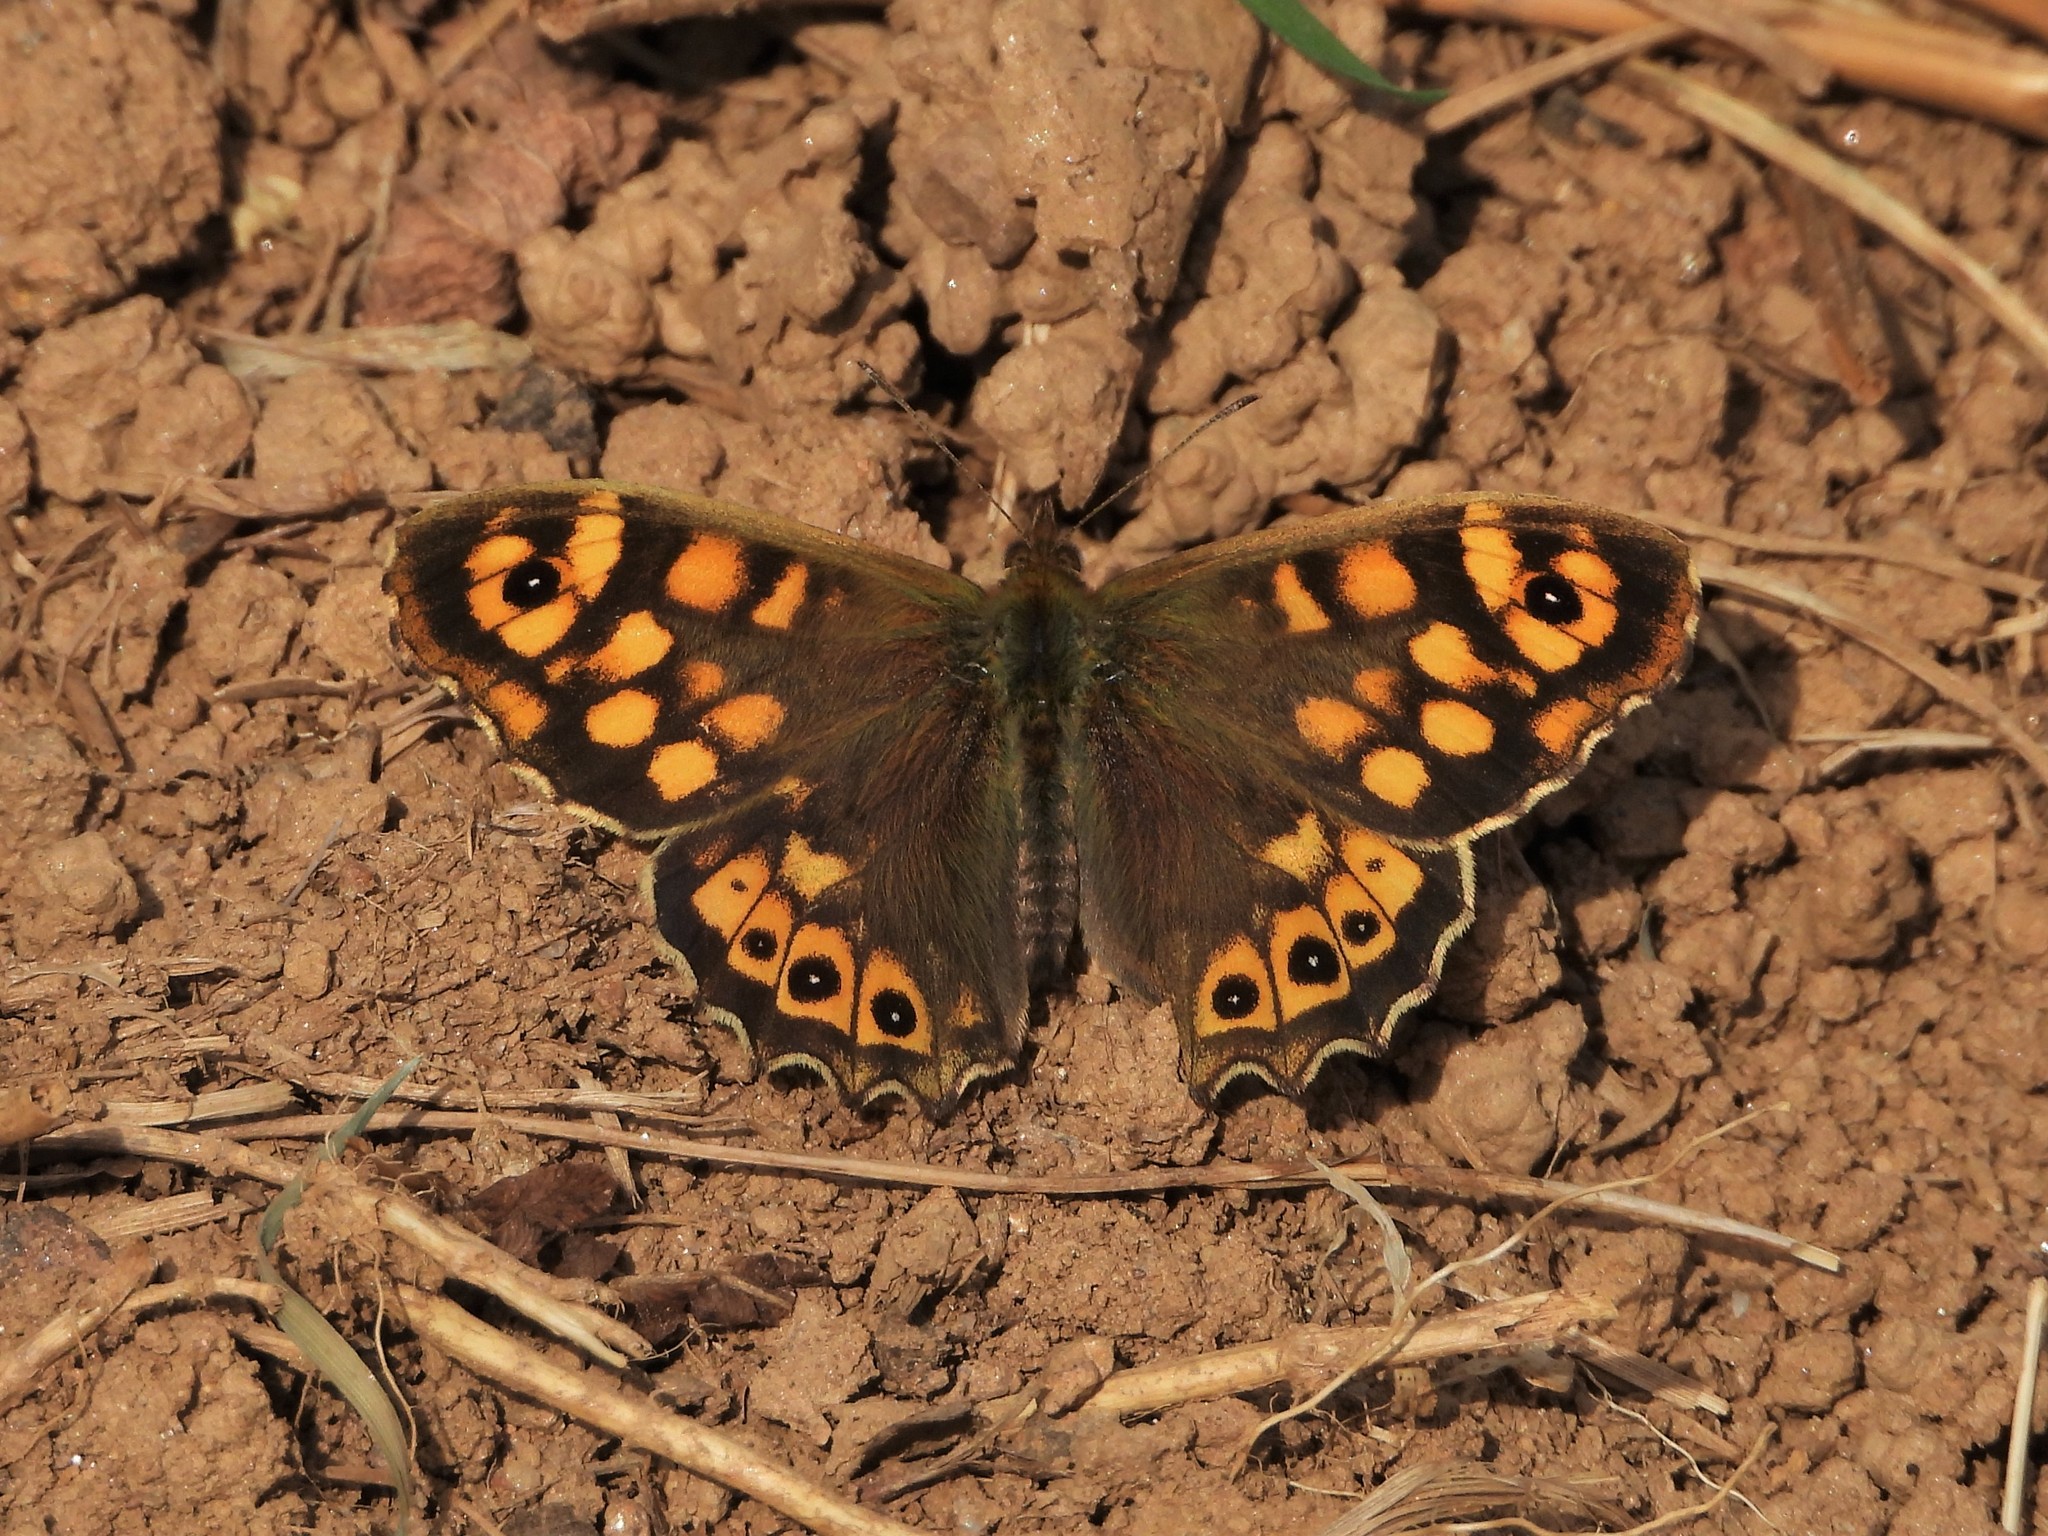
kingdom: Animalia
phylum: Arthropoda
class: Insecta
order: Lepidoptera
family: Nymphalidae
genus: Pararge
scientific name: Pararge aegeria
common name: Speckled wood
